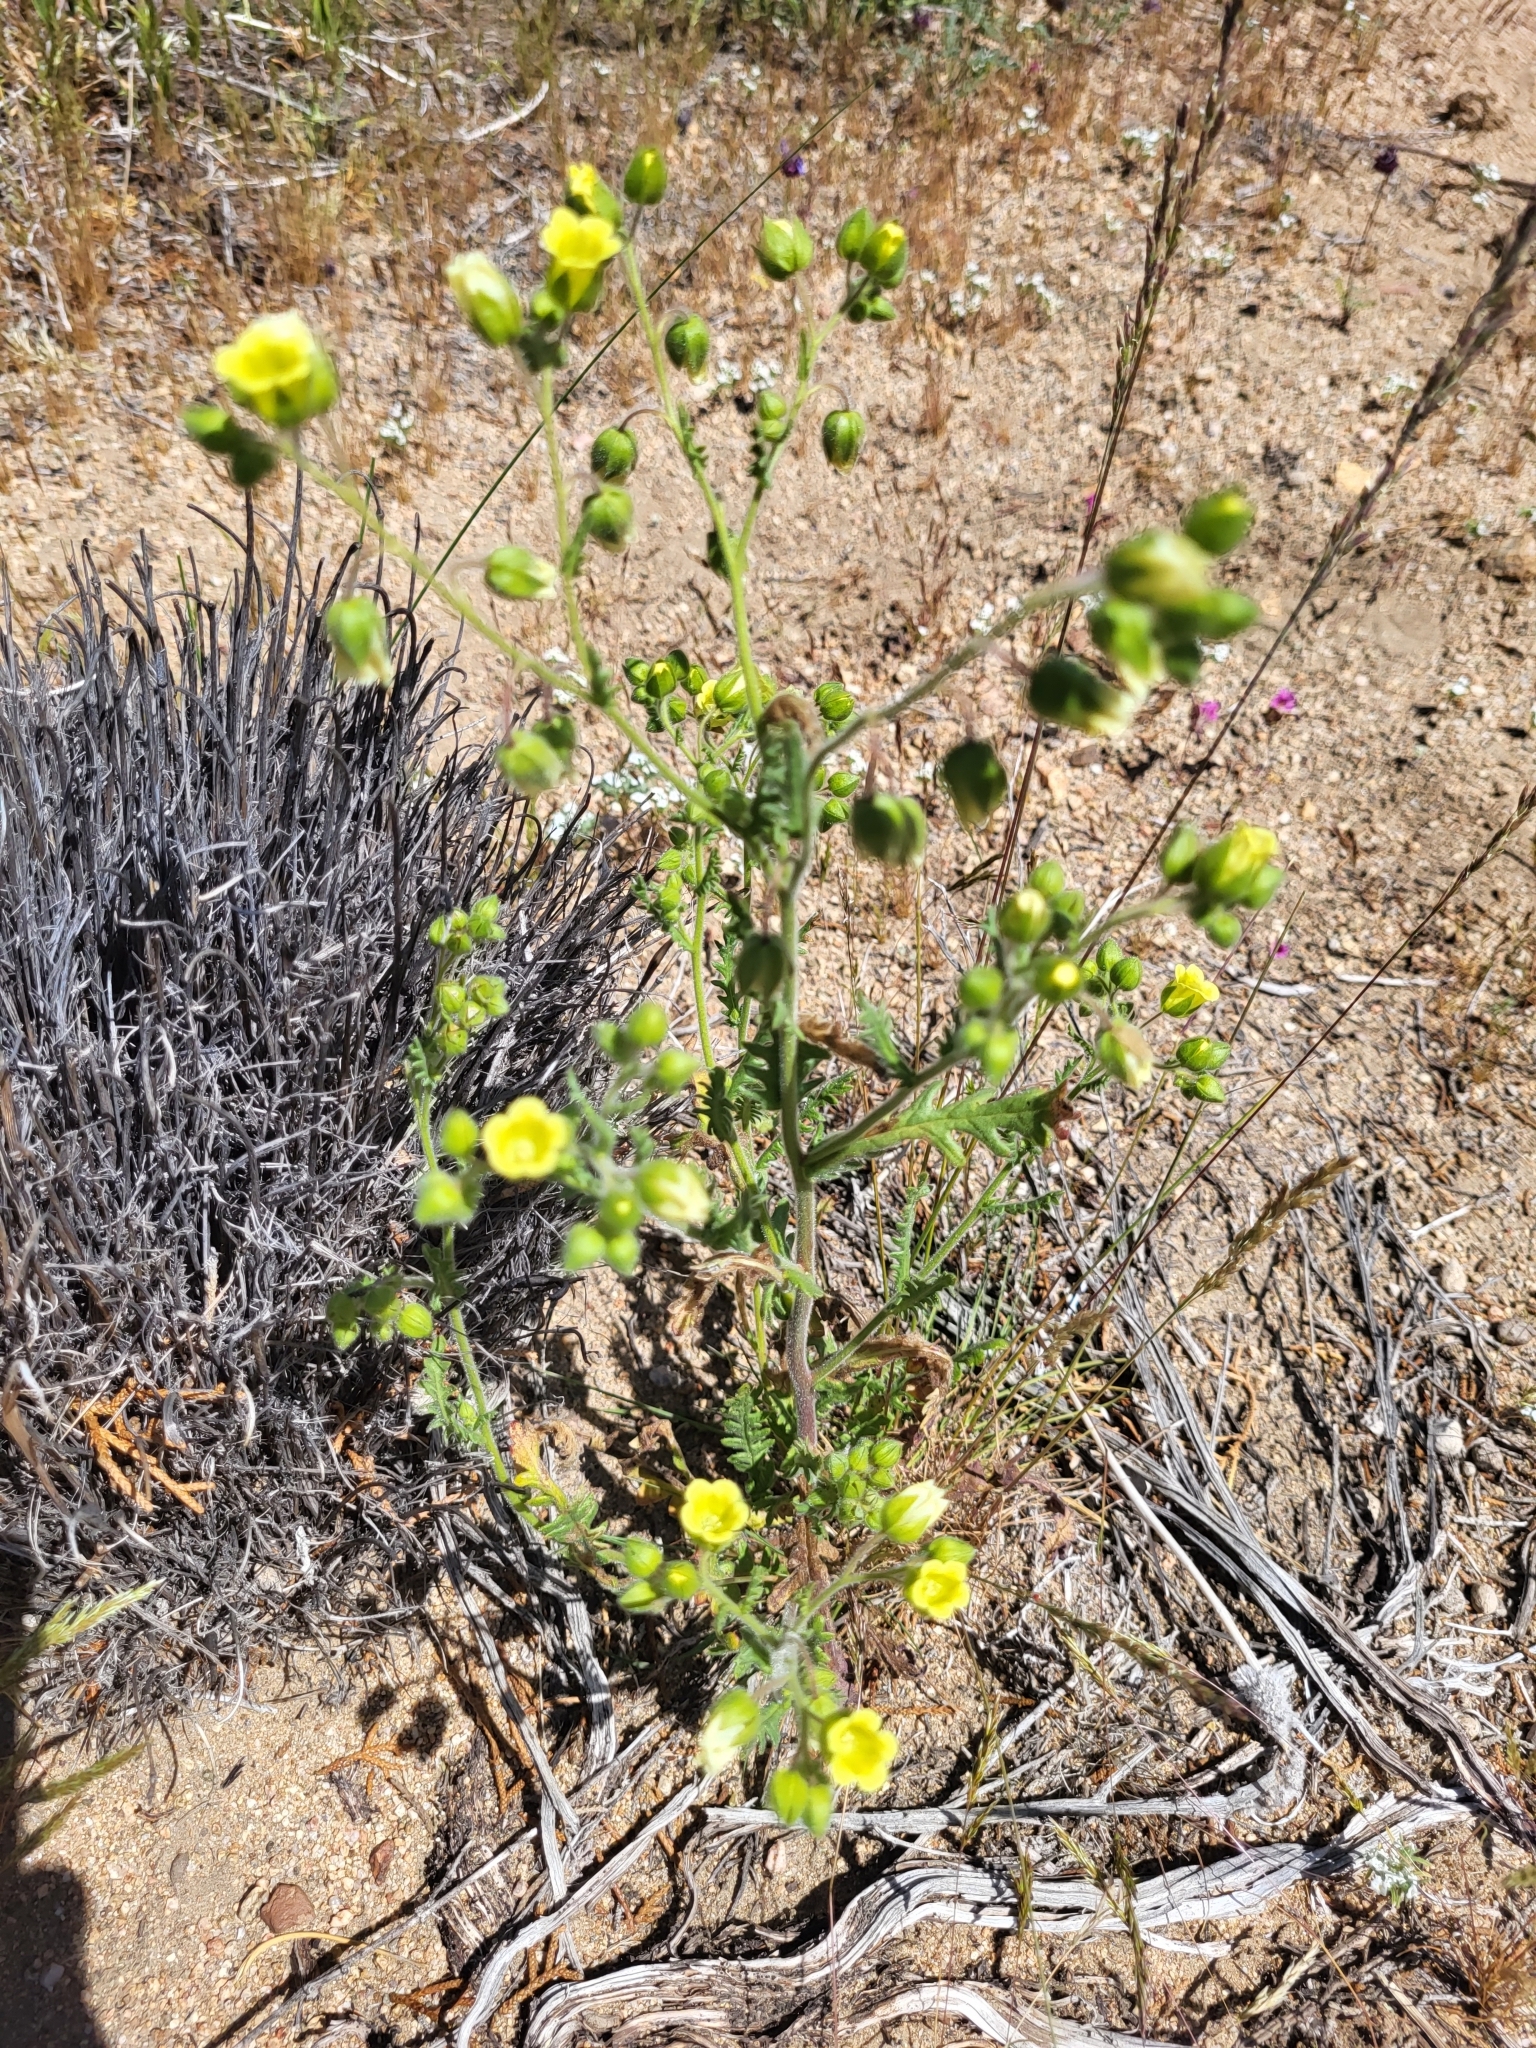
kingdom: Plantae
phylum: Tracheophyta
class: Magnoliopsida
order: Boraginales
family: Hydrophyllaceae
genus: Emmenanthe
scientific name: Emmenanthe penduliflora
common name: Whispering-bells
